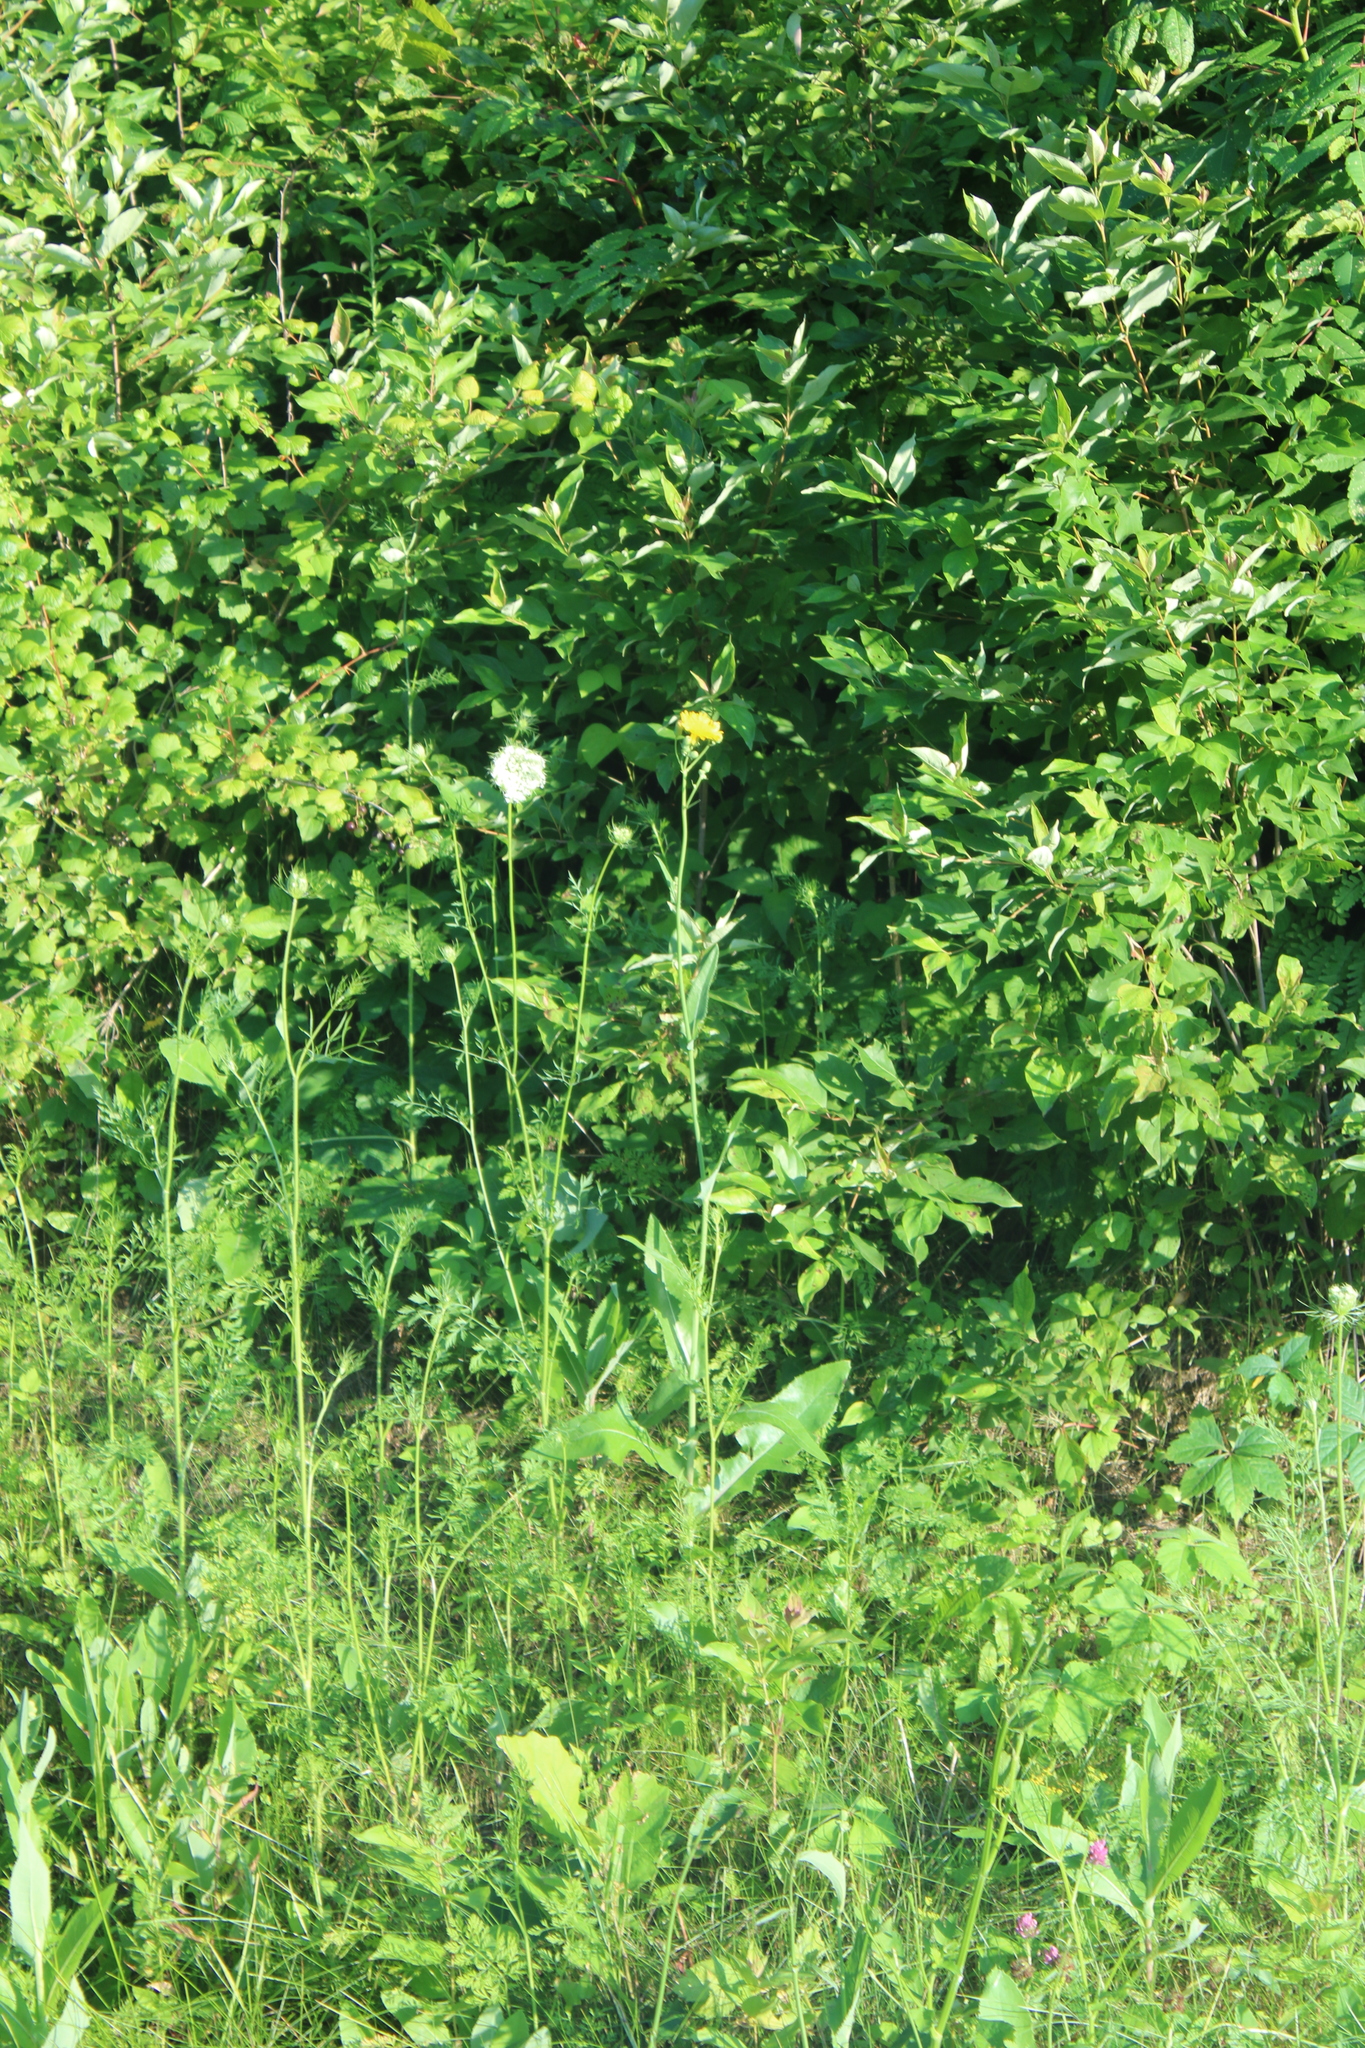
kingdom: Plantae
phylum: Tracheophyta
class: Magnoliopsida
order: Asterales
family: Asteraceae
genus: Sonchus
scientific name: Sonchus arvensis
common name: Perennial sow-thistle
